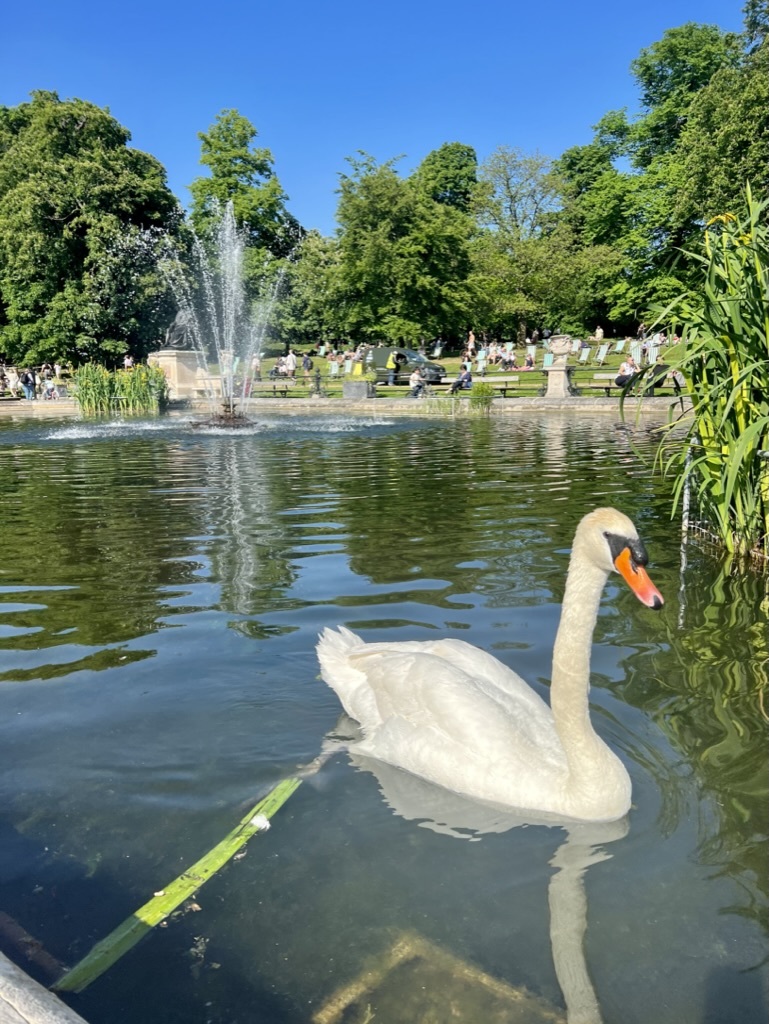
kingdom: Animalia
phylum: Chordata
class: Aves
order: Anseriformes
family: Anatidae
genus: Cygnus
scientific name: Cygnus olor
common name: Mute swan
